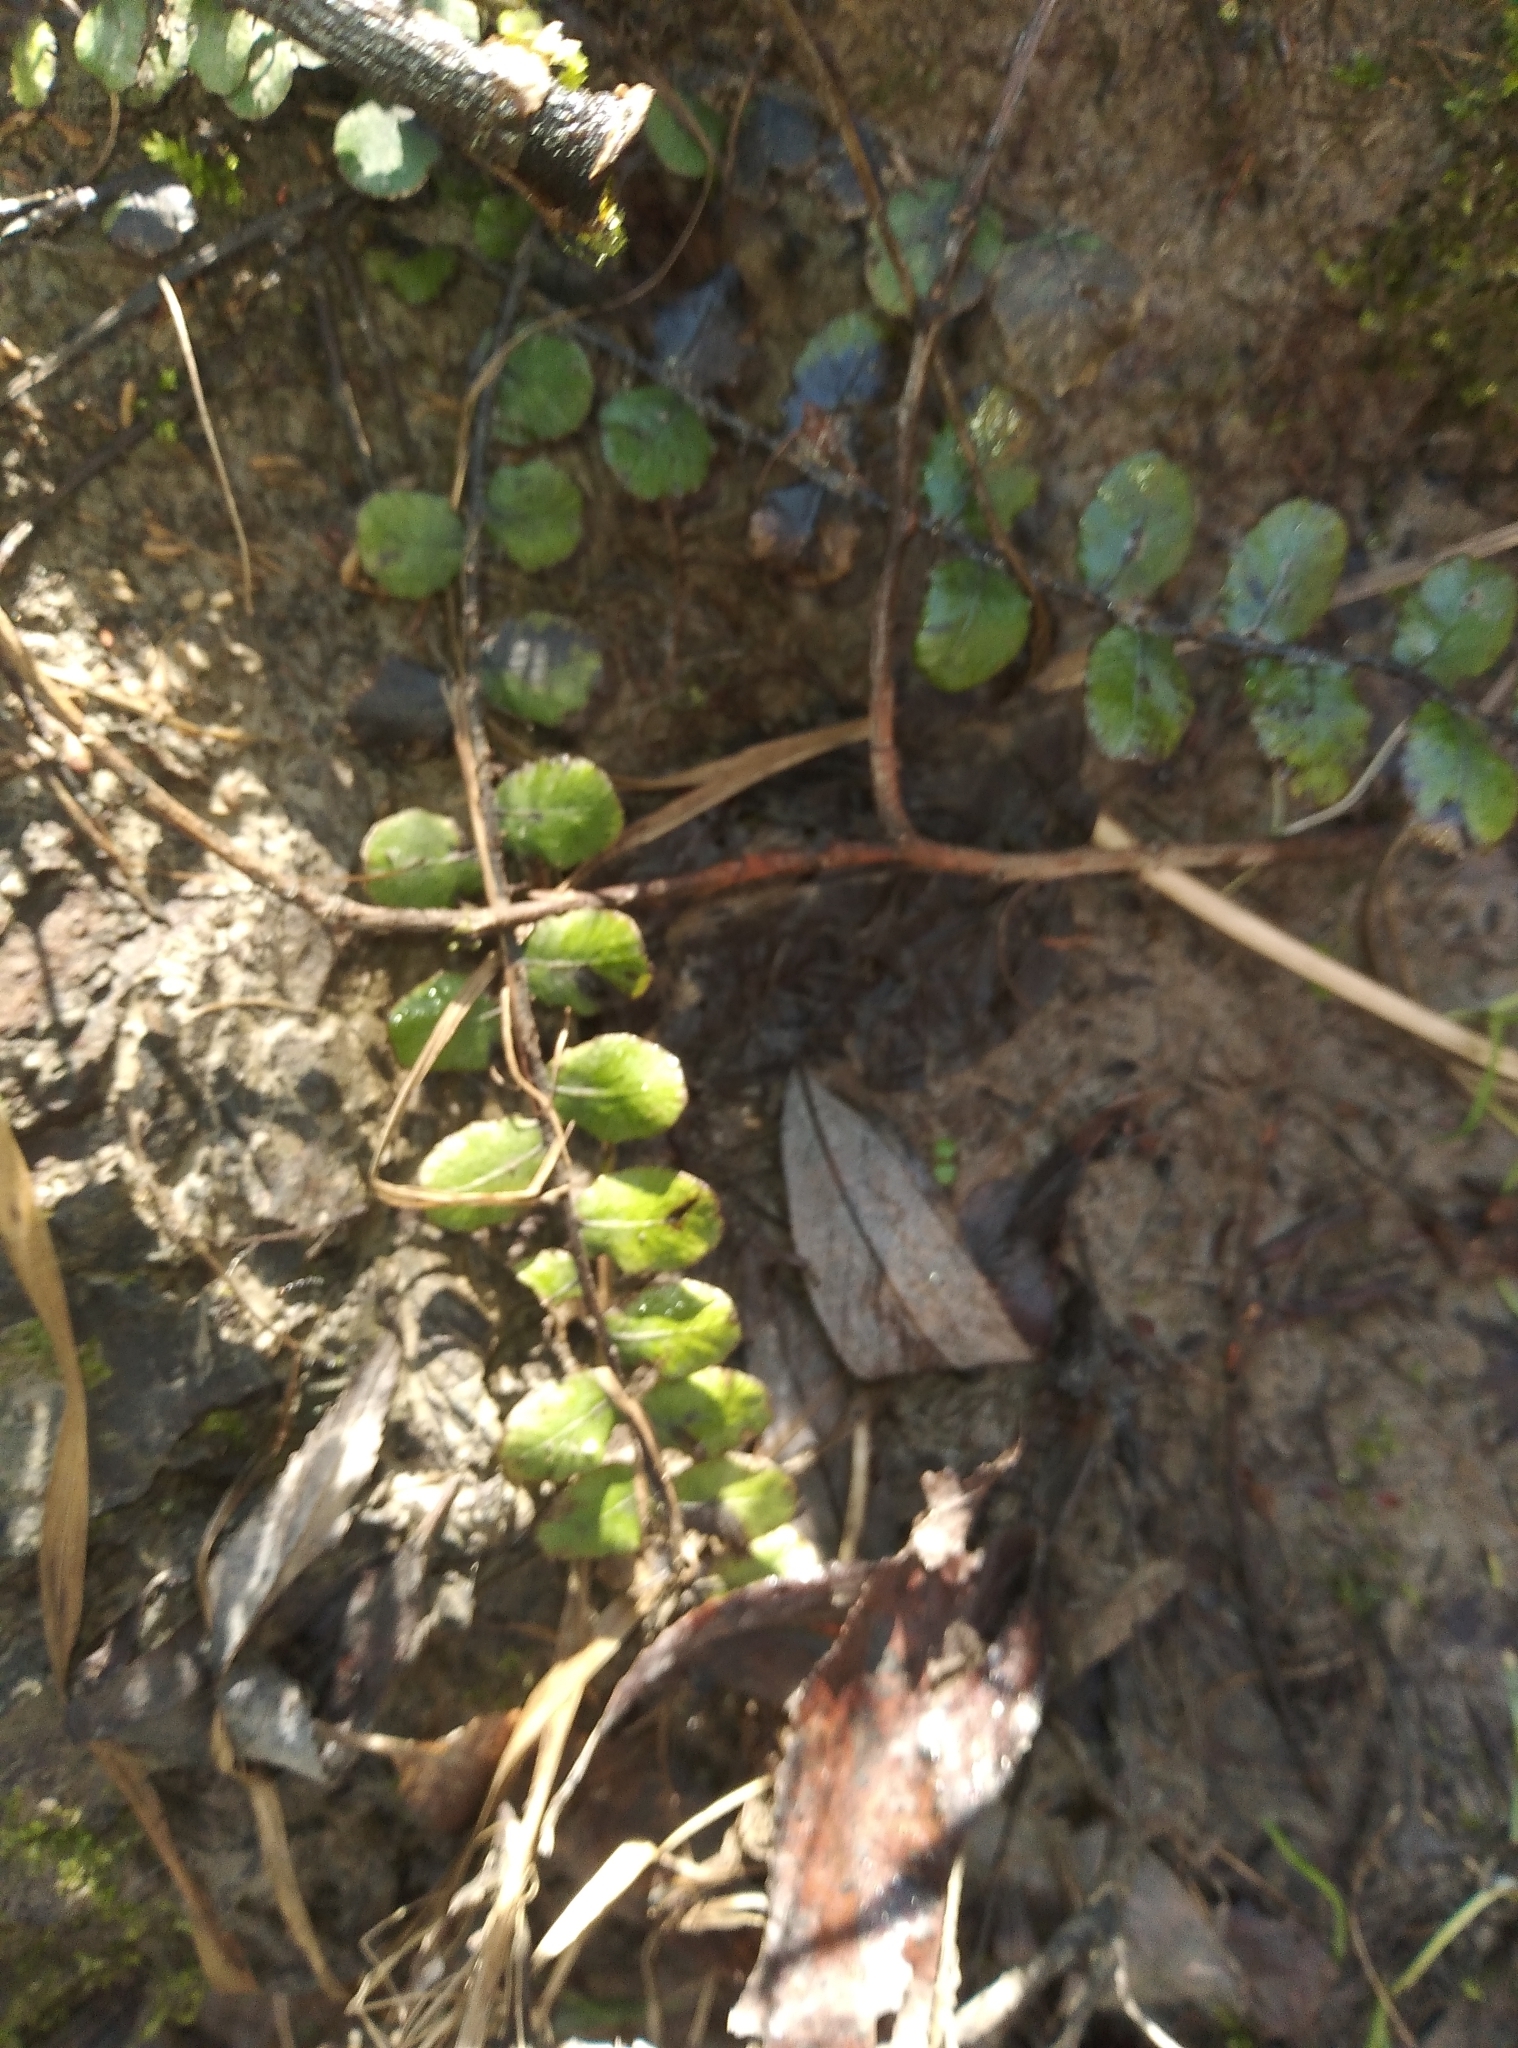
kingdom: Plantae
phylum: Tracheophyta
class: Polypodiopsida
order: Polypodiales
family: Blechnaceae
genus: Cranfillia
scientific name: Cranfillia fluviatilis
